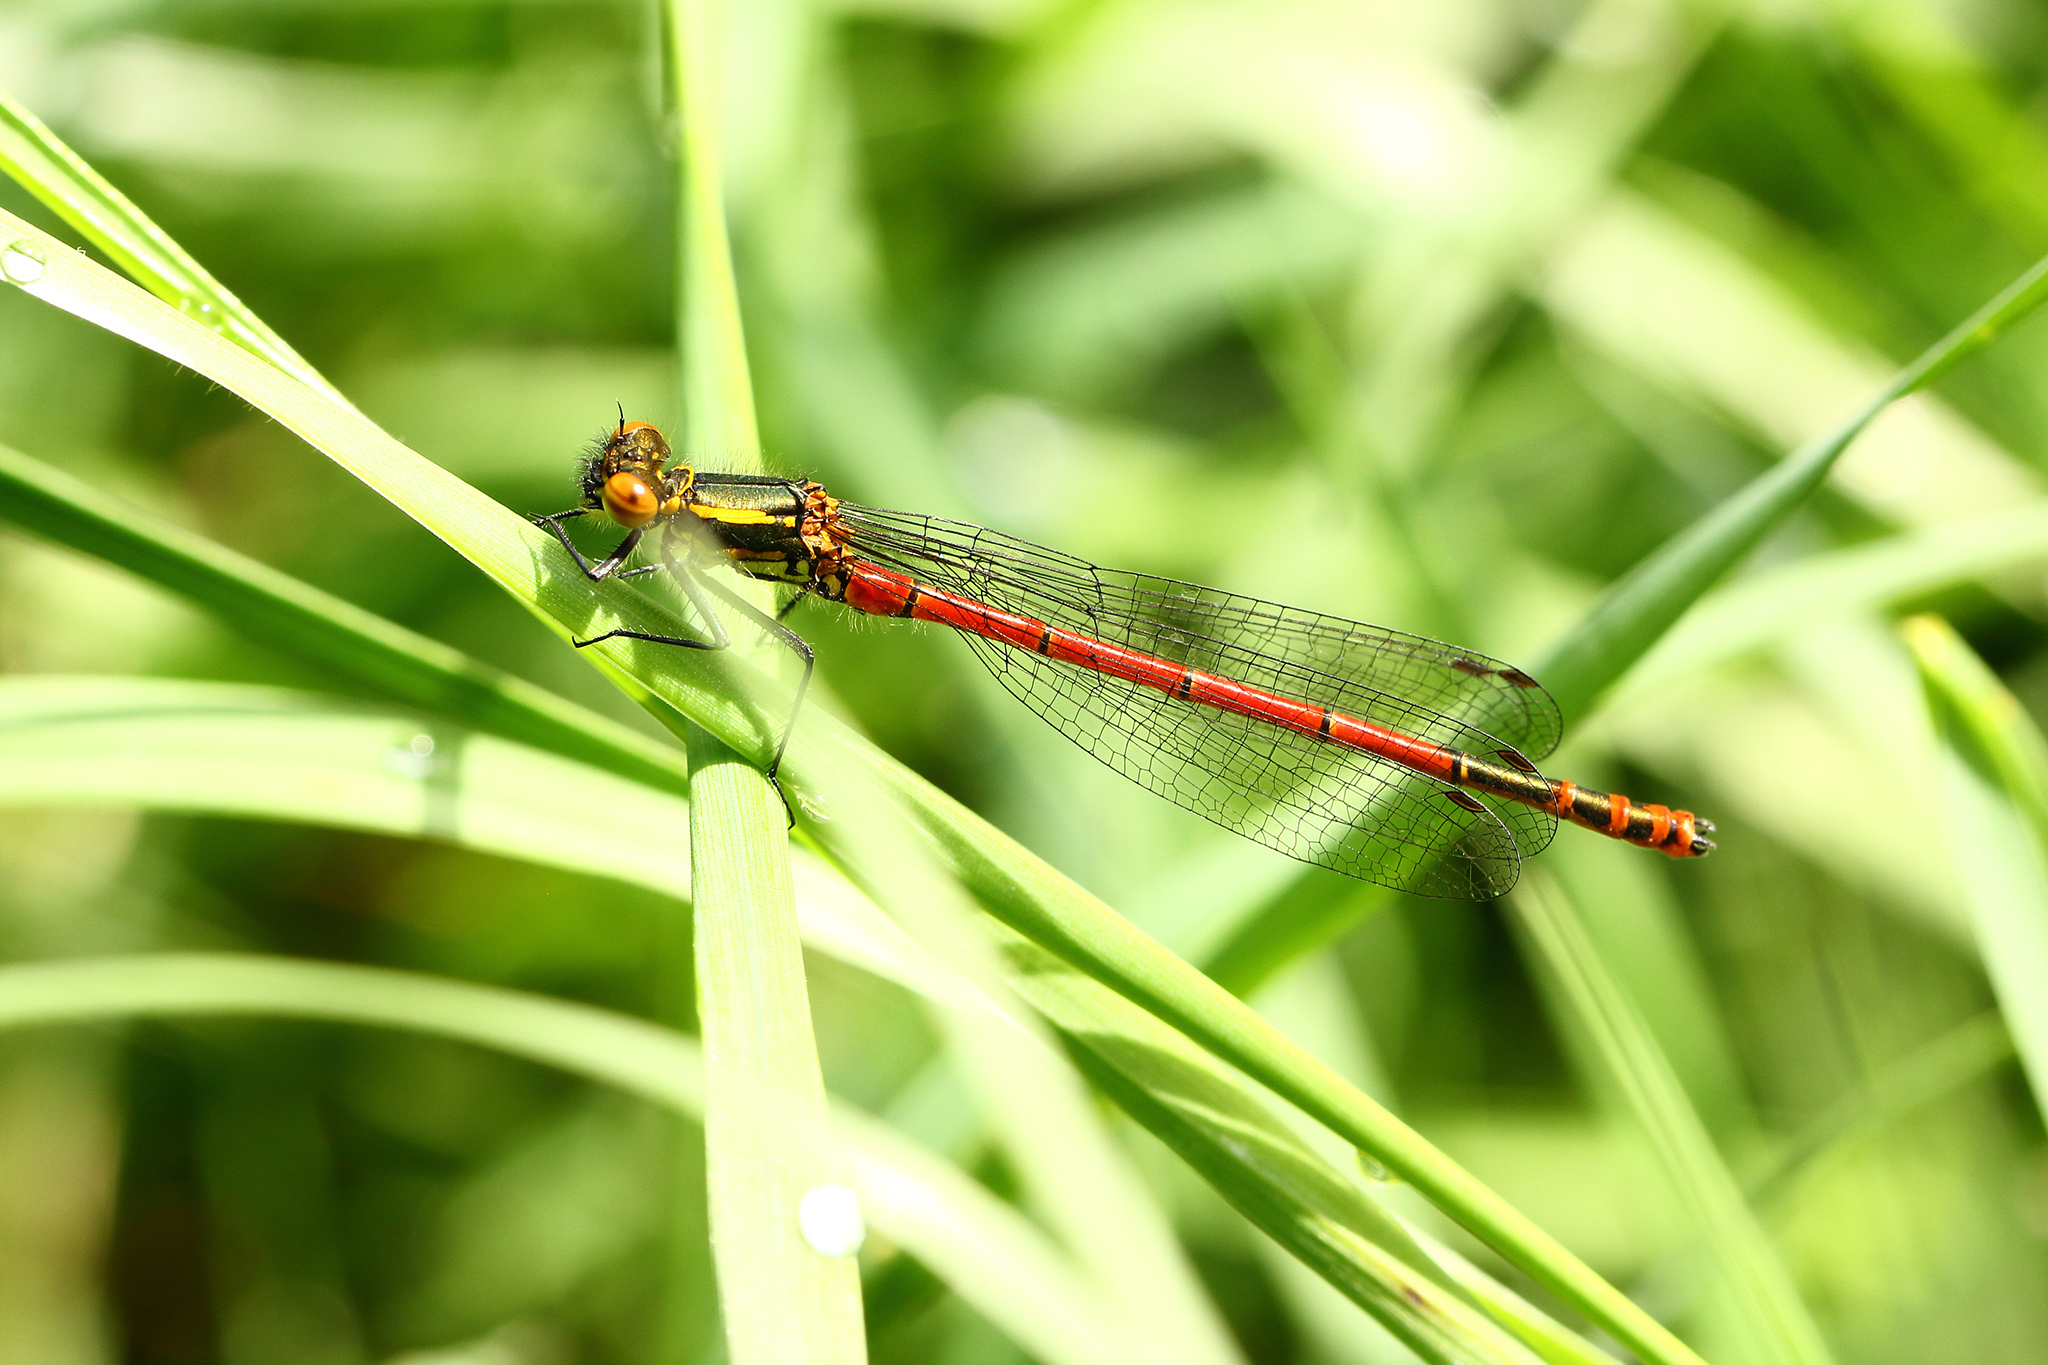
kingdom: Animalia
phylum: Arthropoda
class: Insecta
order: Odonata
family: Coenagrionidae
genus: Pyrrhosoma
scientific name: Pyrrhosoma nymphula
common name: Large red damsel
